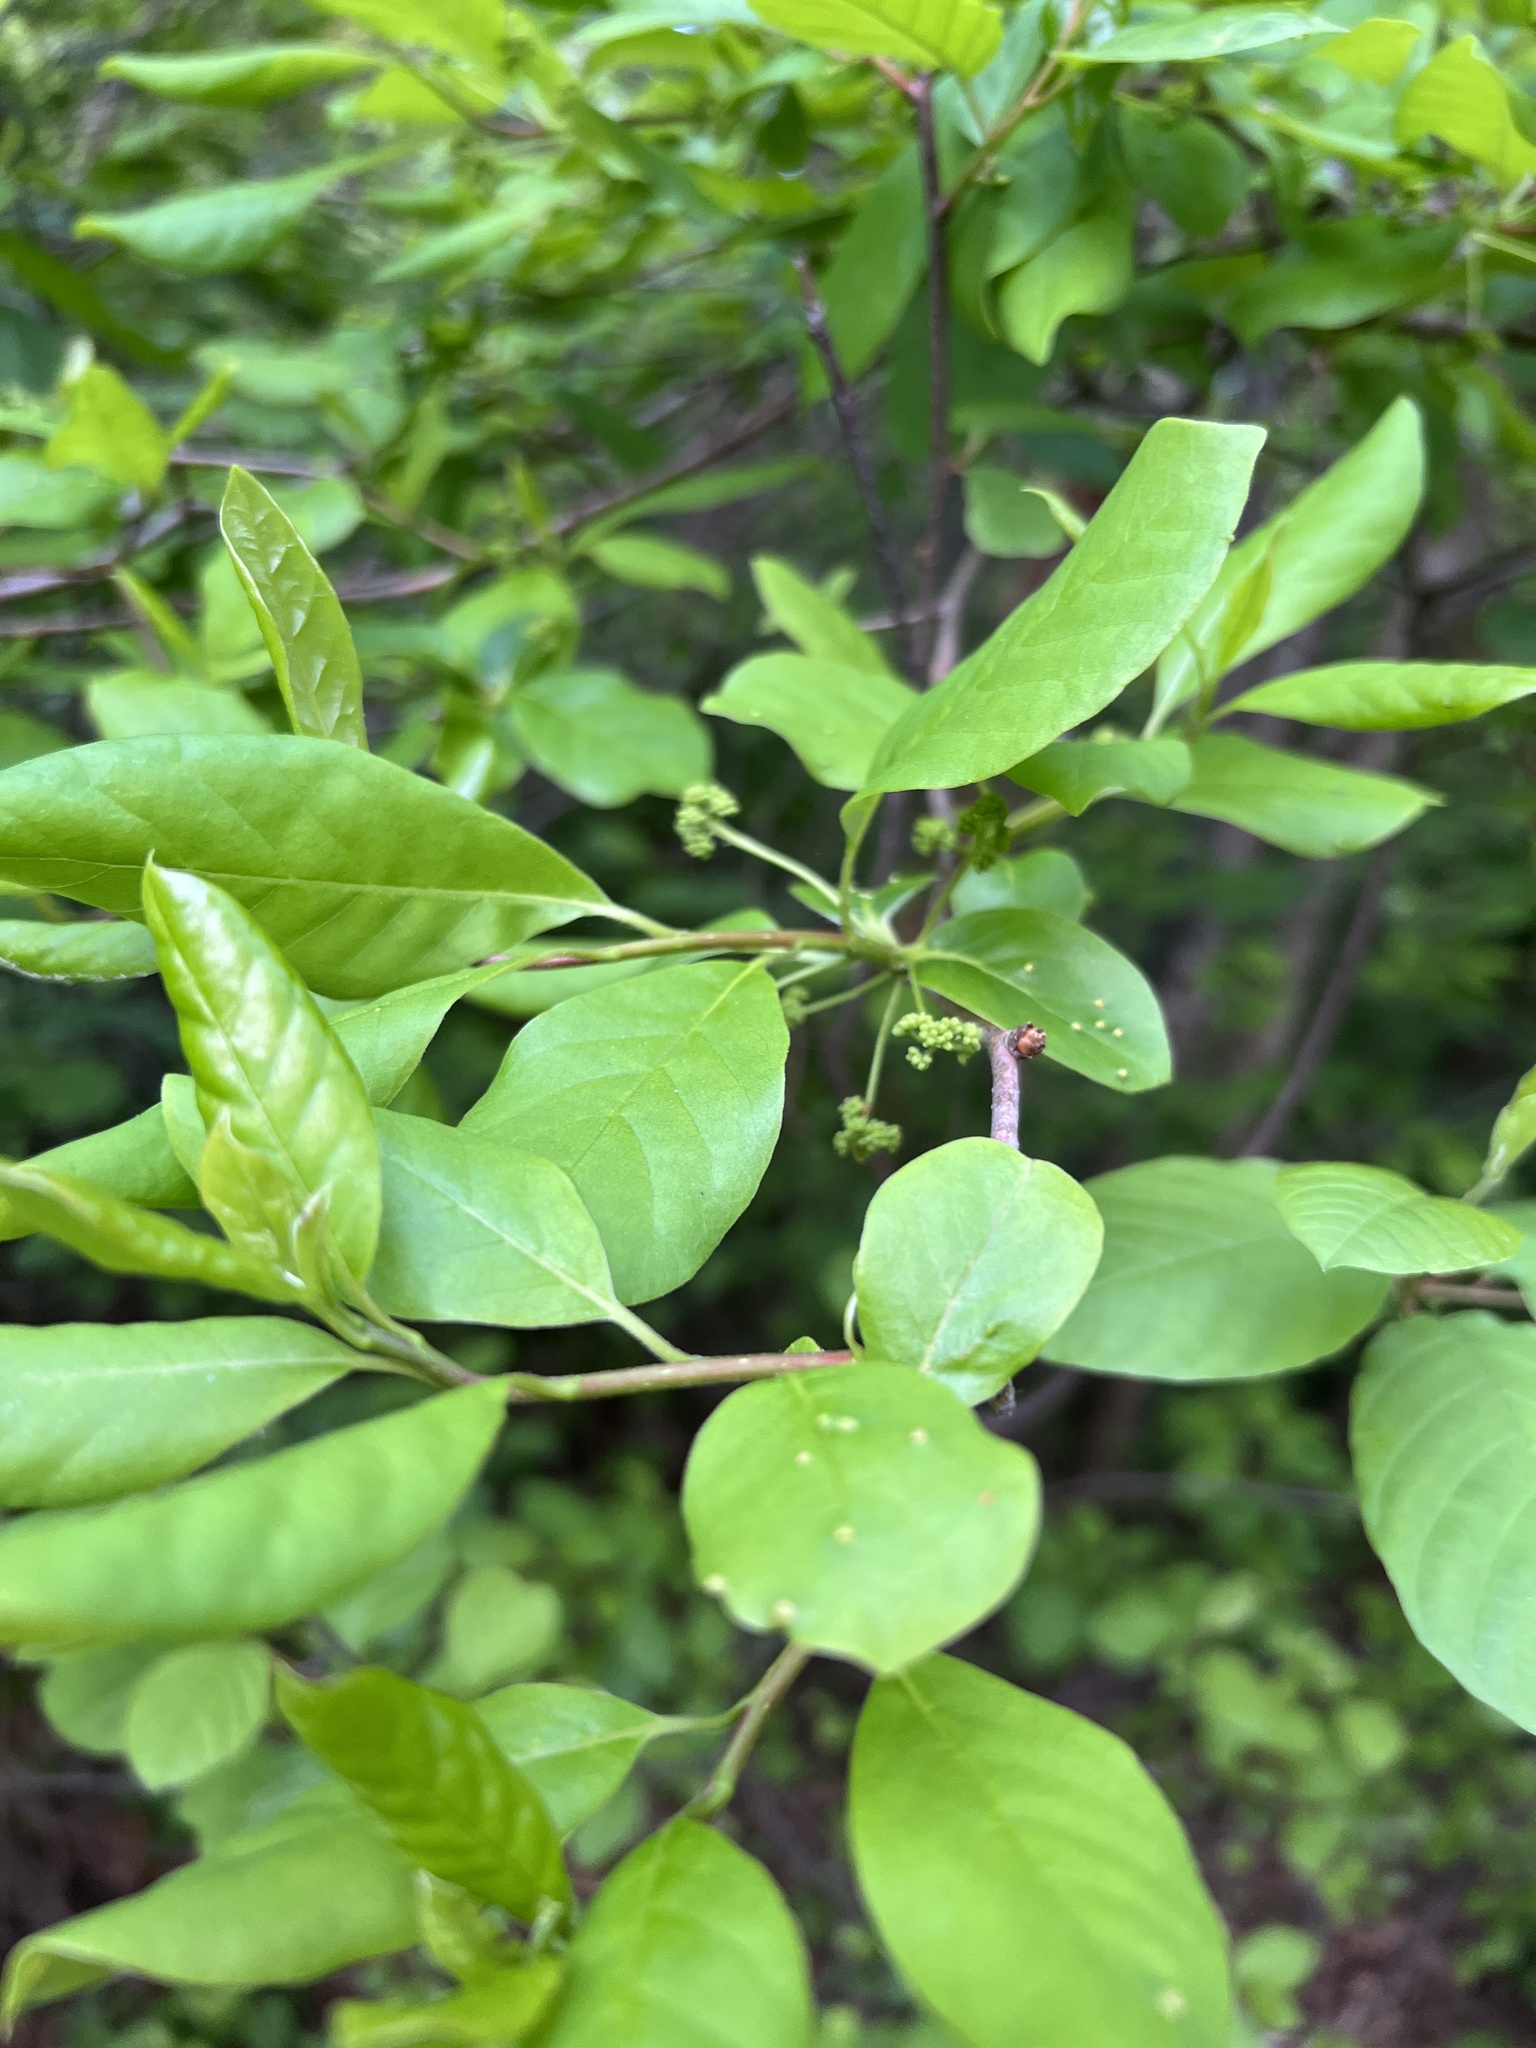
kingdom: Plantae
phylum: Tracheophyta
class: Magnoliopsida
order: Cornales
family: Nyssaceae
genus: Nyssa
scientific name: Nyssa sylvatica
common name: Black tupelo
